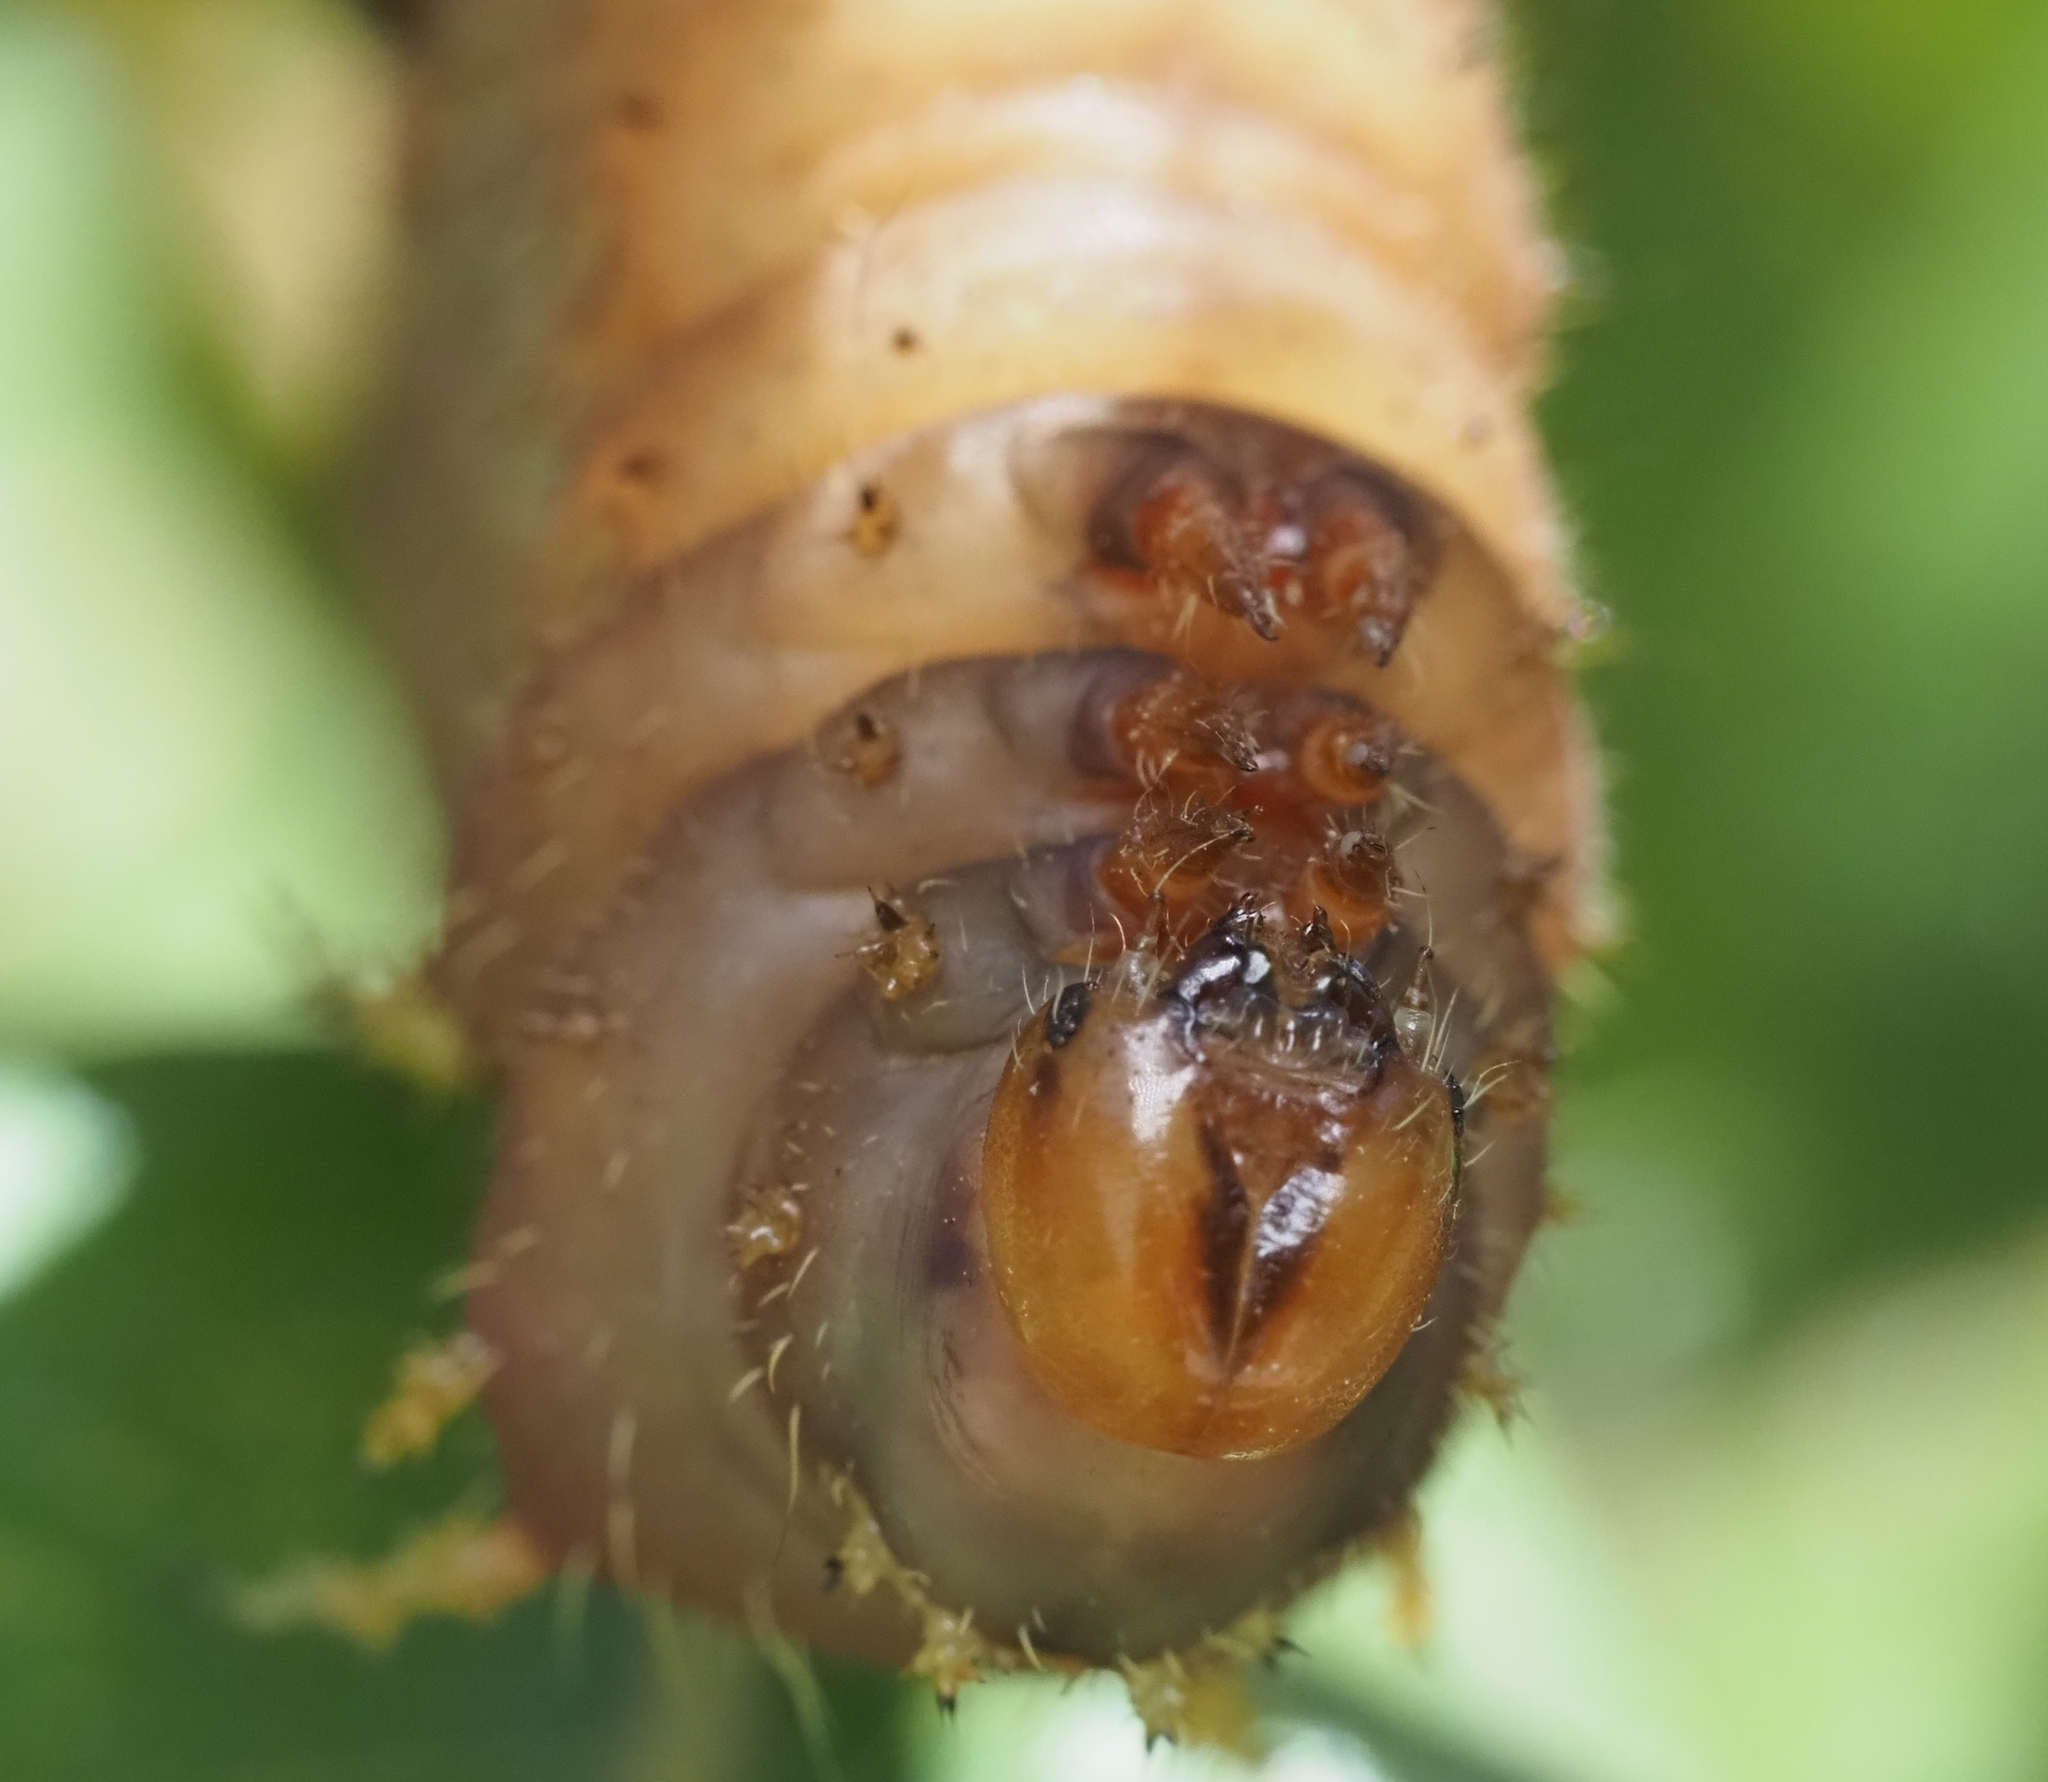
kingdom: Animalia
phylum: Arthropoda
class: Insecta
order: Lepidoptera
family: Saturniidae
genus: Eacles
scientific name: Eacles imperialis
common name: Imperial moth
